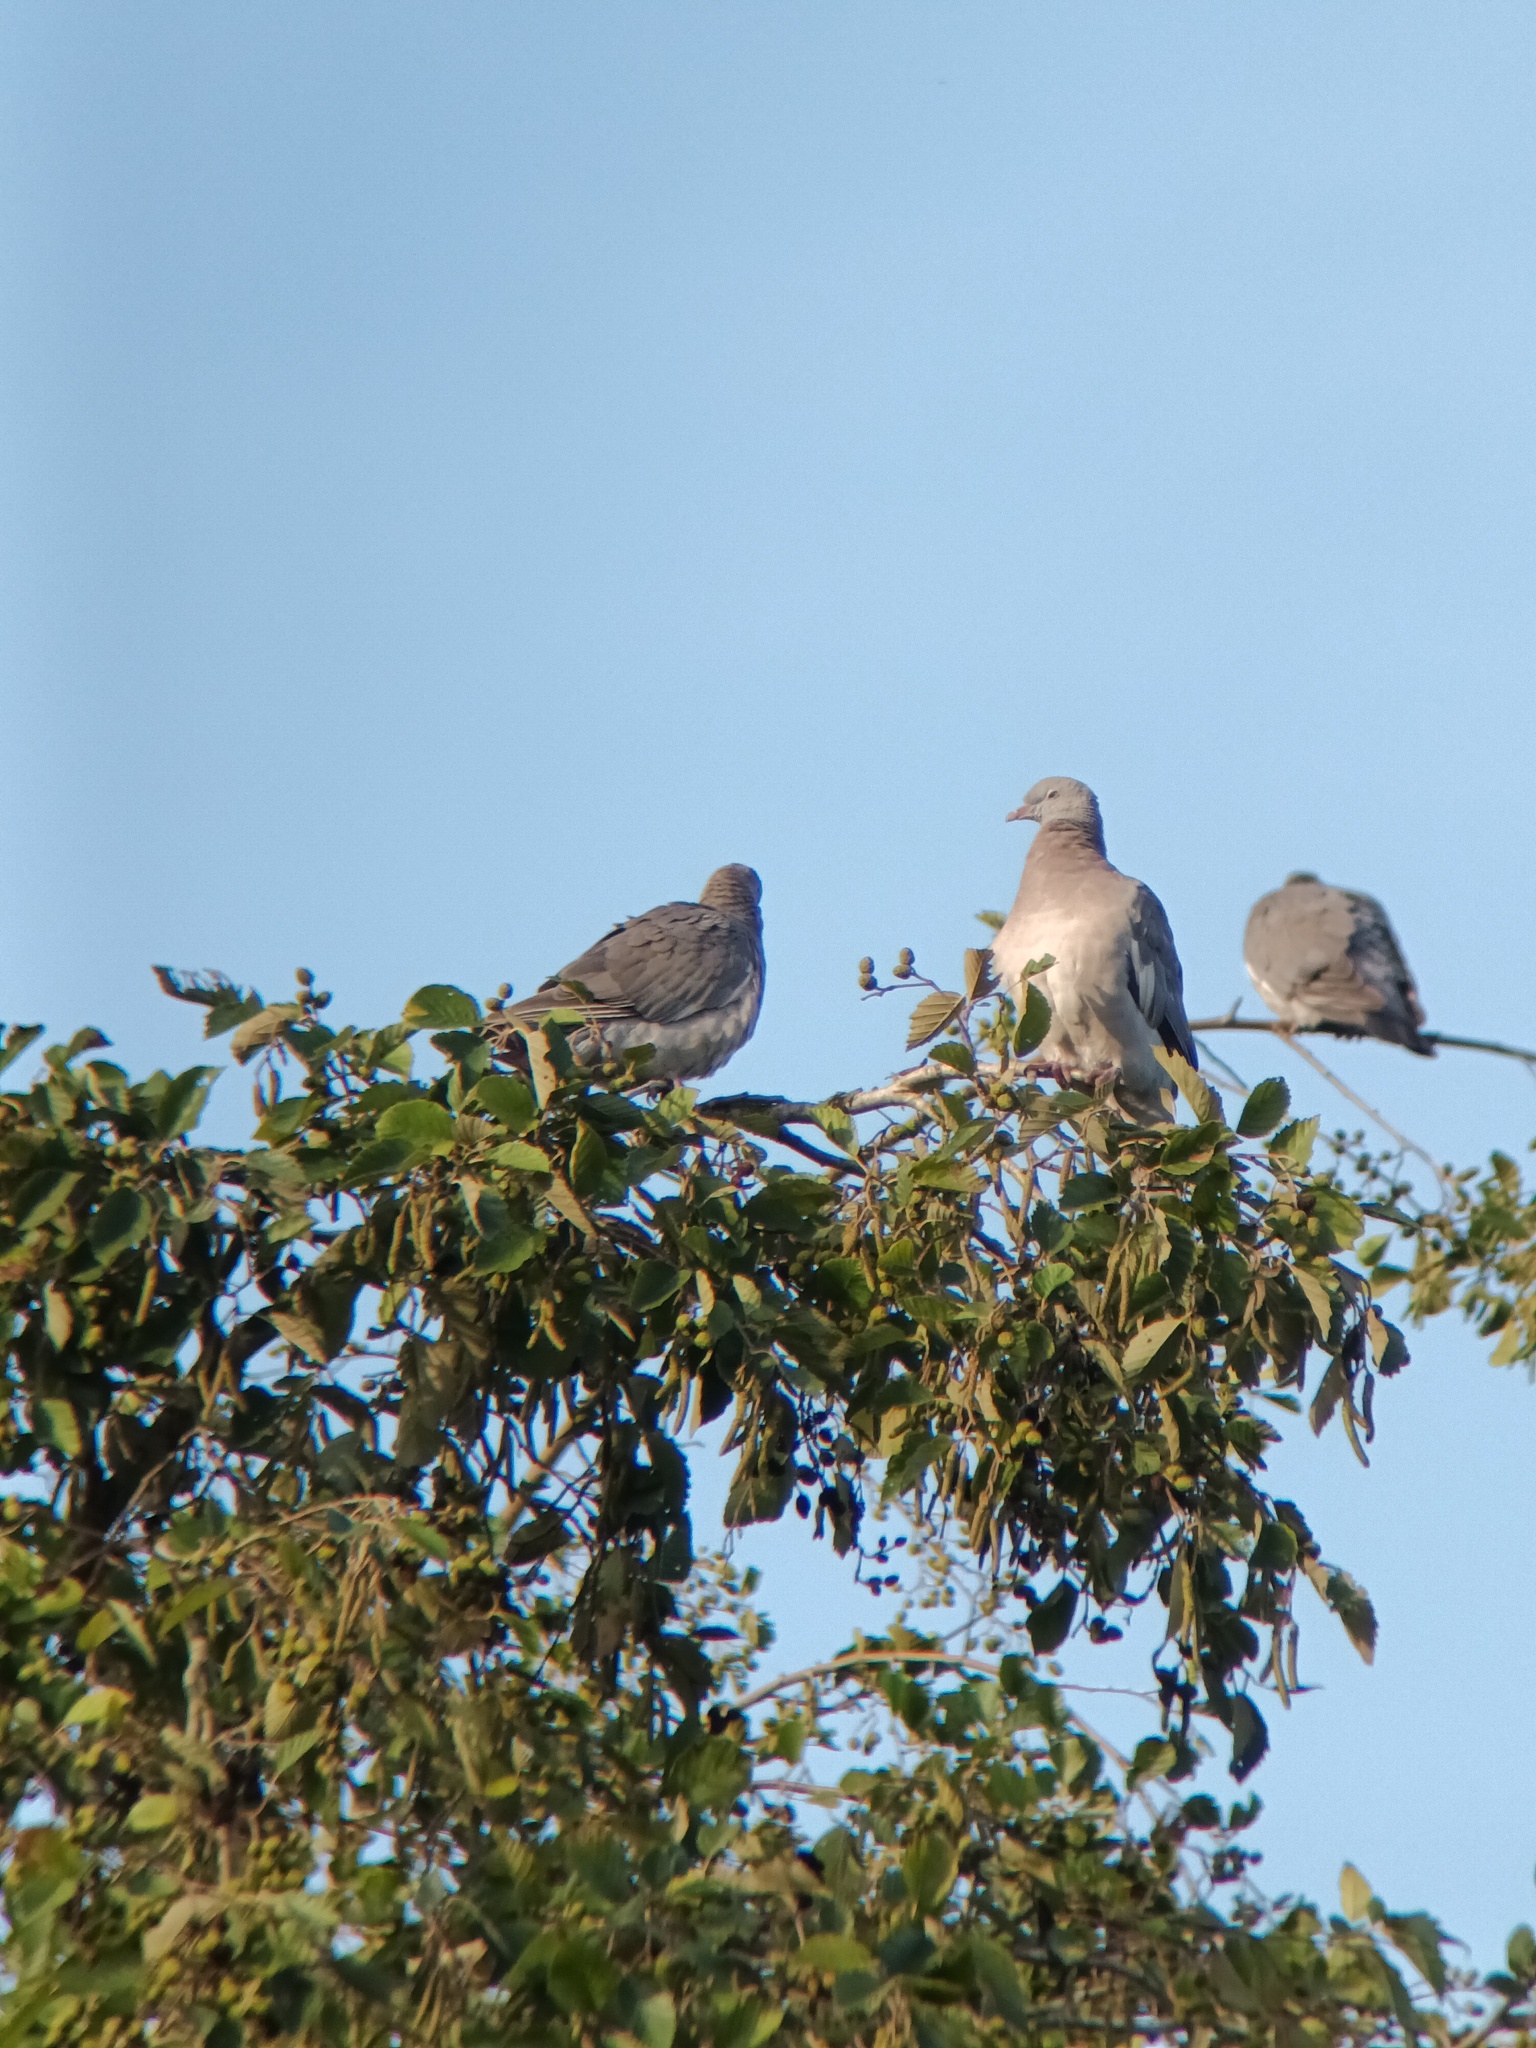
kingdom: Animalia
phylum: Chordata
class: Aves
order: Columbiformes
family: Columbidae
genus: Columba
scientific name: Columba palumbus
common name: Common wood pigeon
